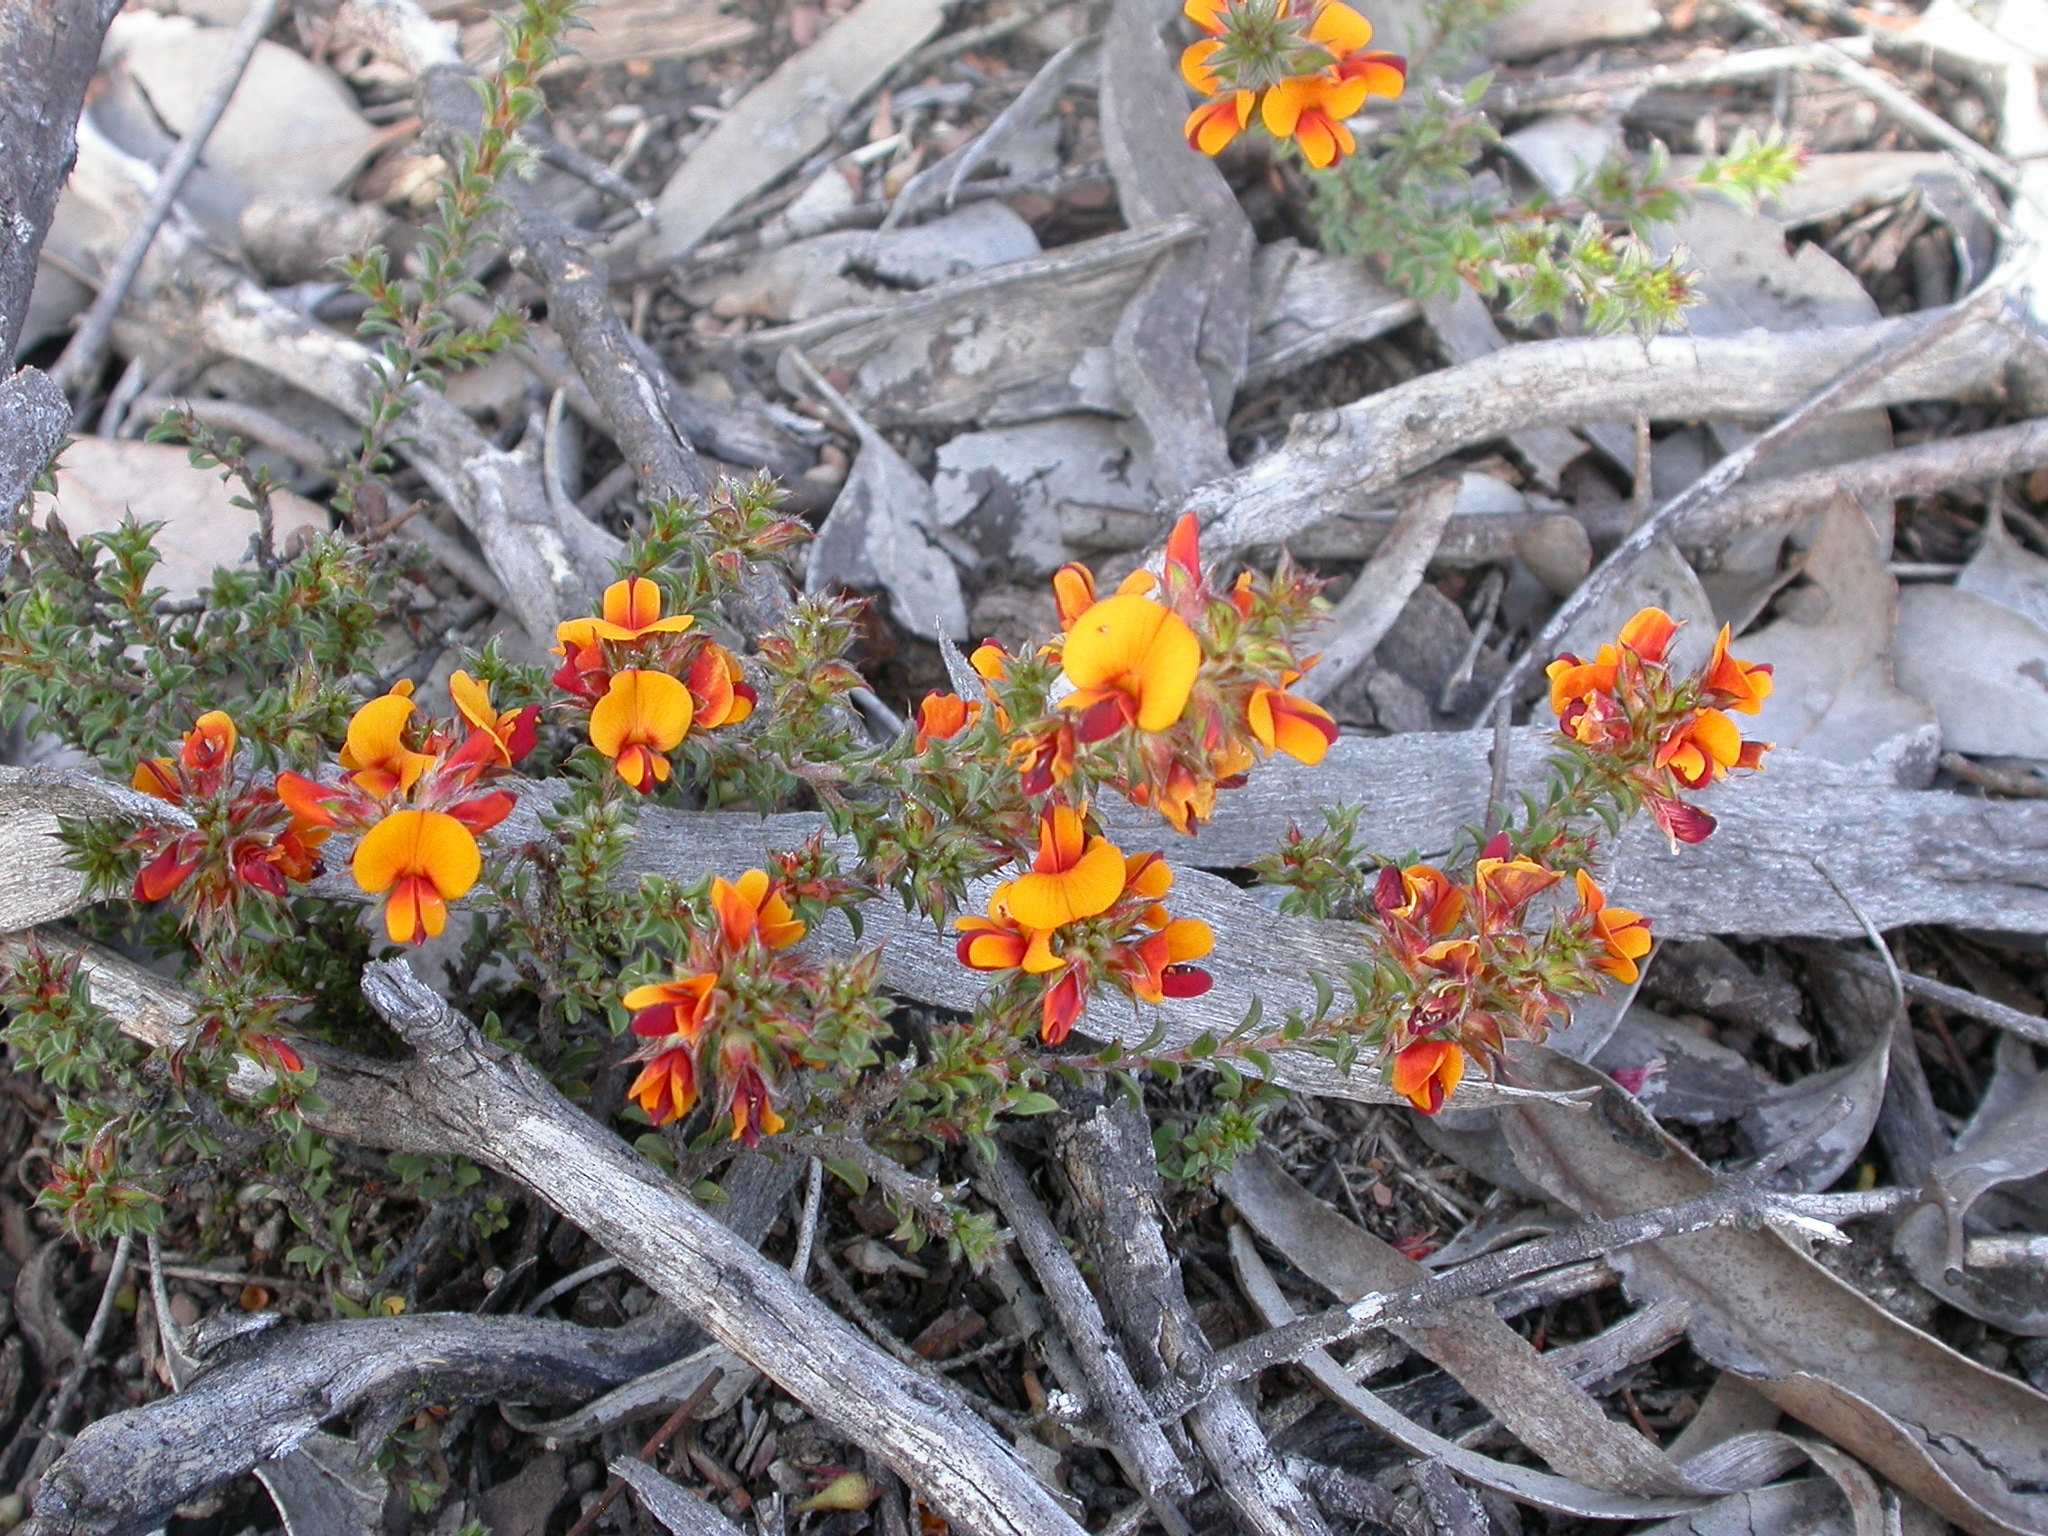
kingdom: Plantae
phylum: Tracheophyta
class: Magnoliopsida
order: Fabales
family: Fabaceae
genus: Pultenaea
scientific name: Pultenaea procumbens
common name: Heathy bush-pea
